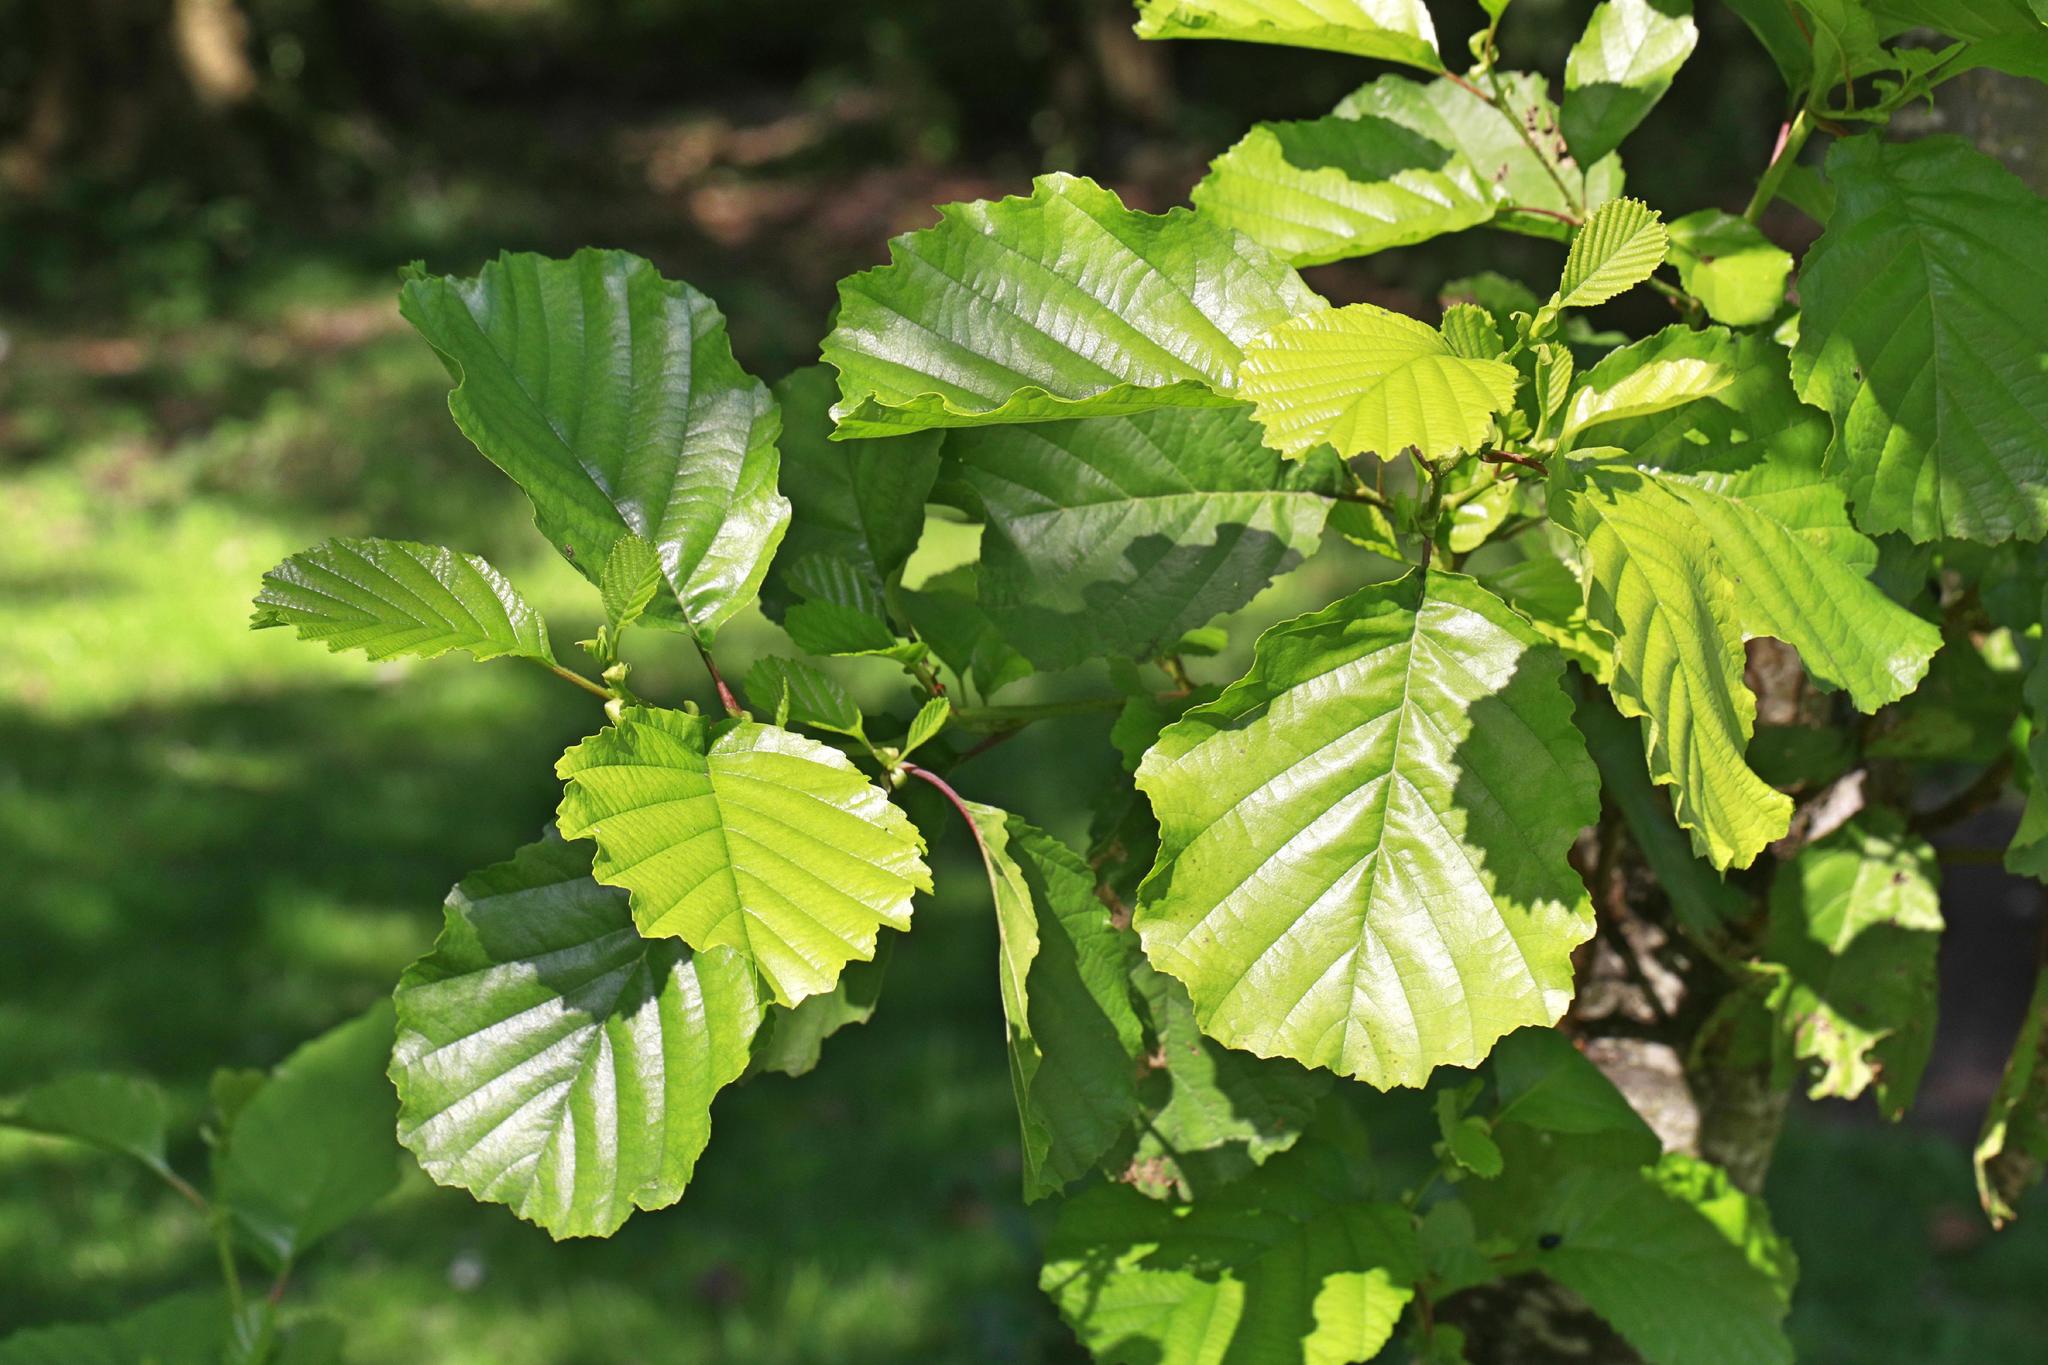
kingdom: Plantae
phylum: Tracheophyta
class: Magnoliopsida
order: Fagales
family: Betulaceae
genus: Alnus
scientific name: Alnus glutinosa
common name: Black alder
